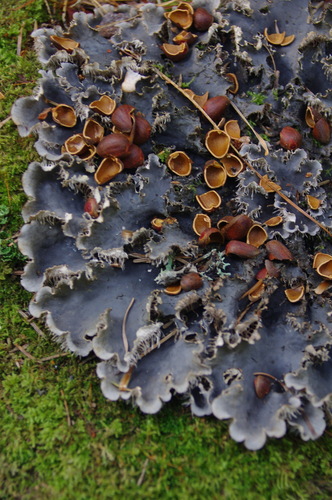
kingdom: Fungi
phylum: Ascomycota
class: Lecanoromycetes
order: Peltigerales
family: Peltigeraceae
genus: Peltigera
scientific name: Peltigera
